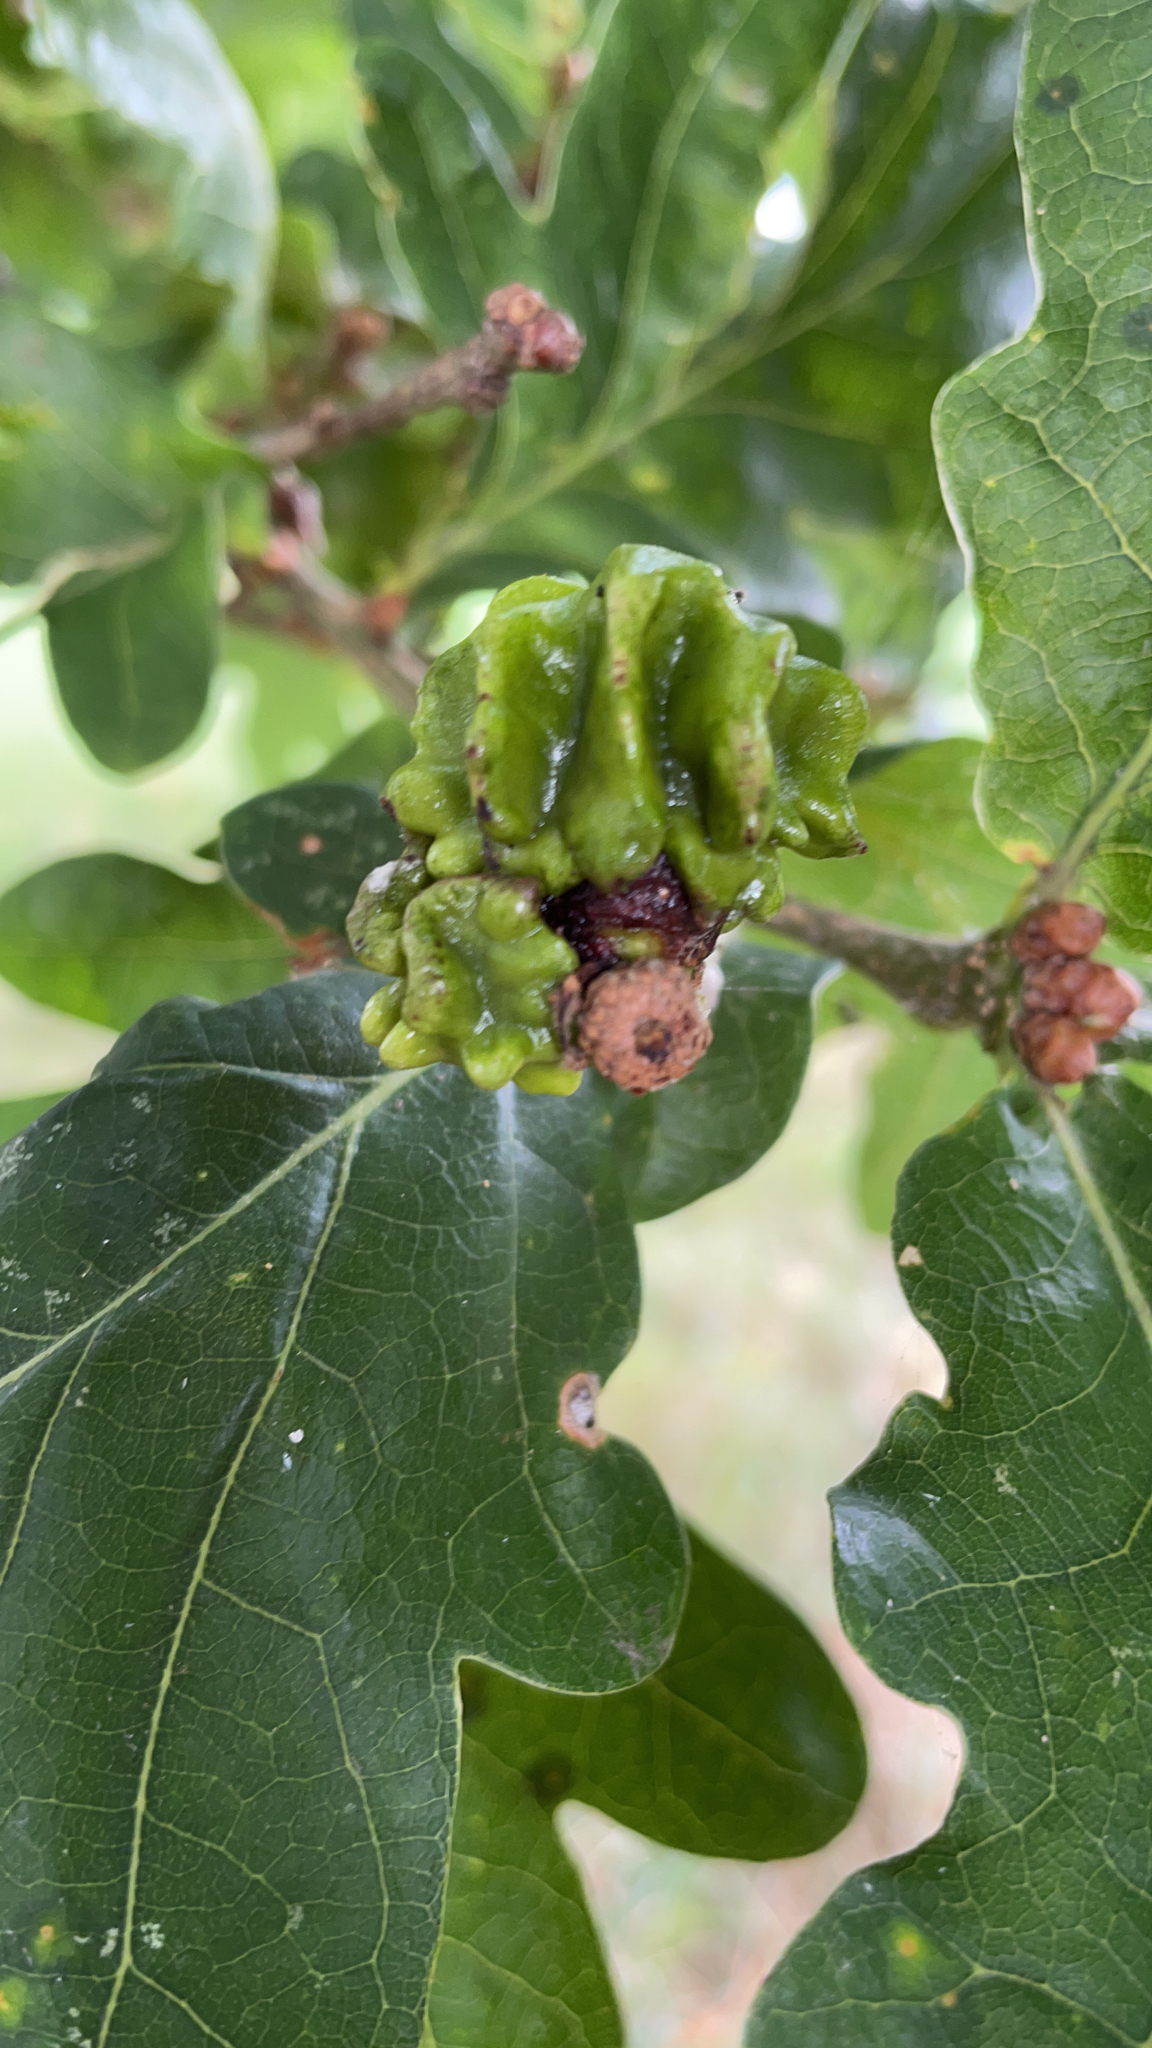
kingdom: Animalia
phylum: Arthropoda
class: Insecta
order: Hymenoptera
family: Cynipidae
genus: Andricus
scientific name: Andricus quercuscalicis
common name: Knopper gall
